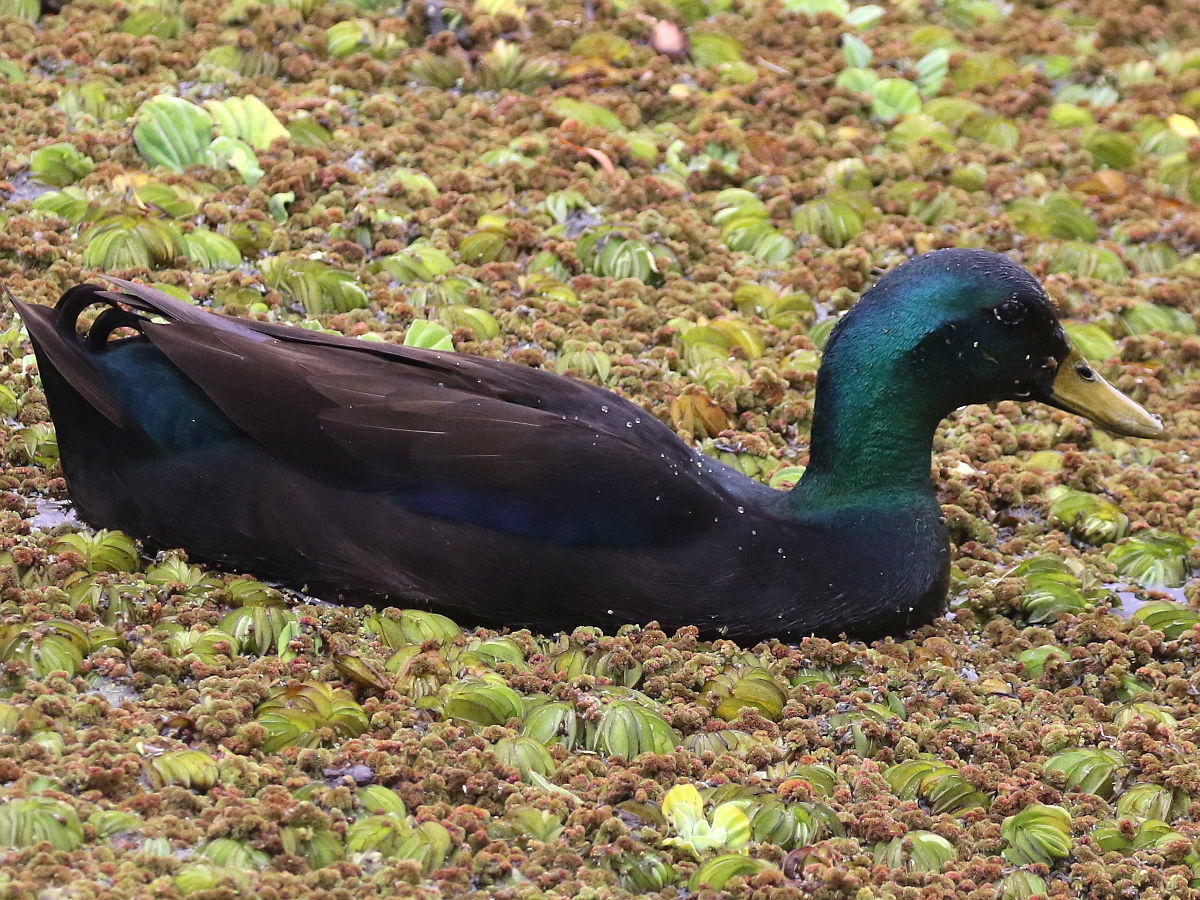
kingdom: Animalia
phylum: Chordata
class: Aves
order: Anseriformes
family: Anatidae
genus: Anas
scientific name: Anas platyrhynchos
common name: Mallard
